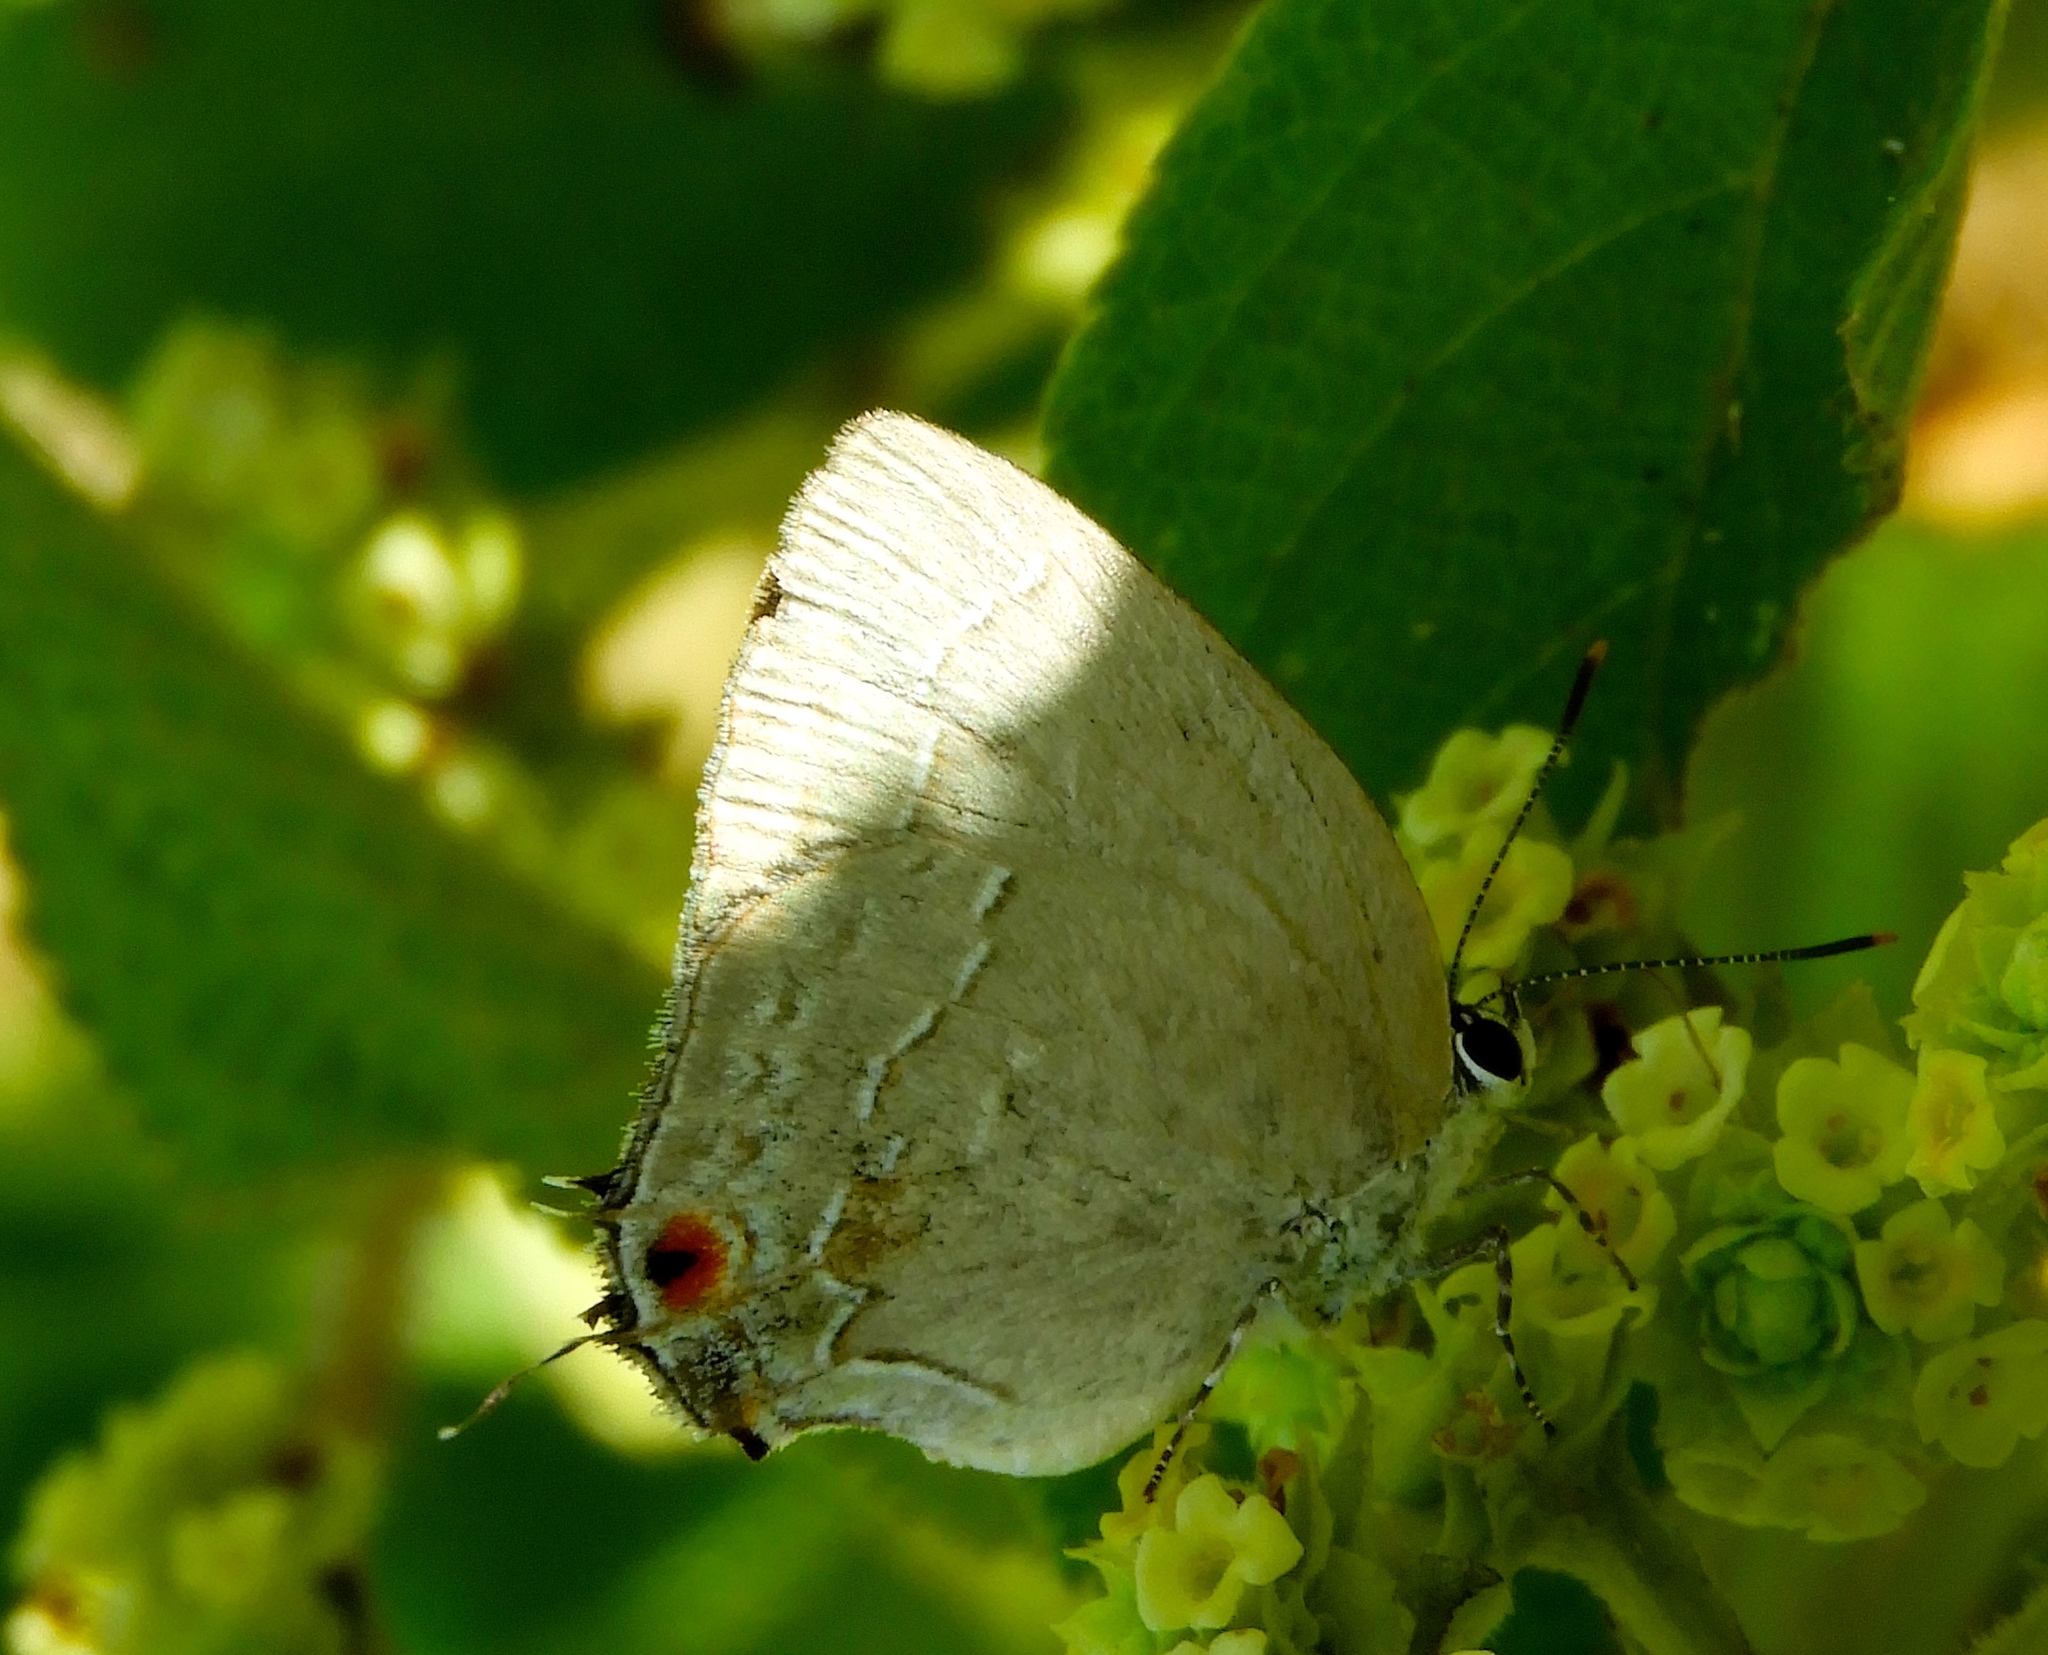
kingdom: Animalia
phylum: Arthropoda
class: Insecta
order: Lepidoptera
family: Lycaenidae
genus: Strephonota
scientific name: Strephonota tephraeus
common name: Pearly-gray hairstreak
